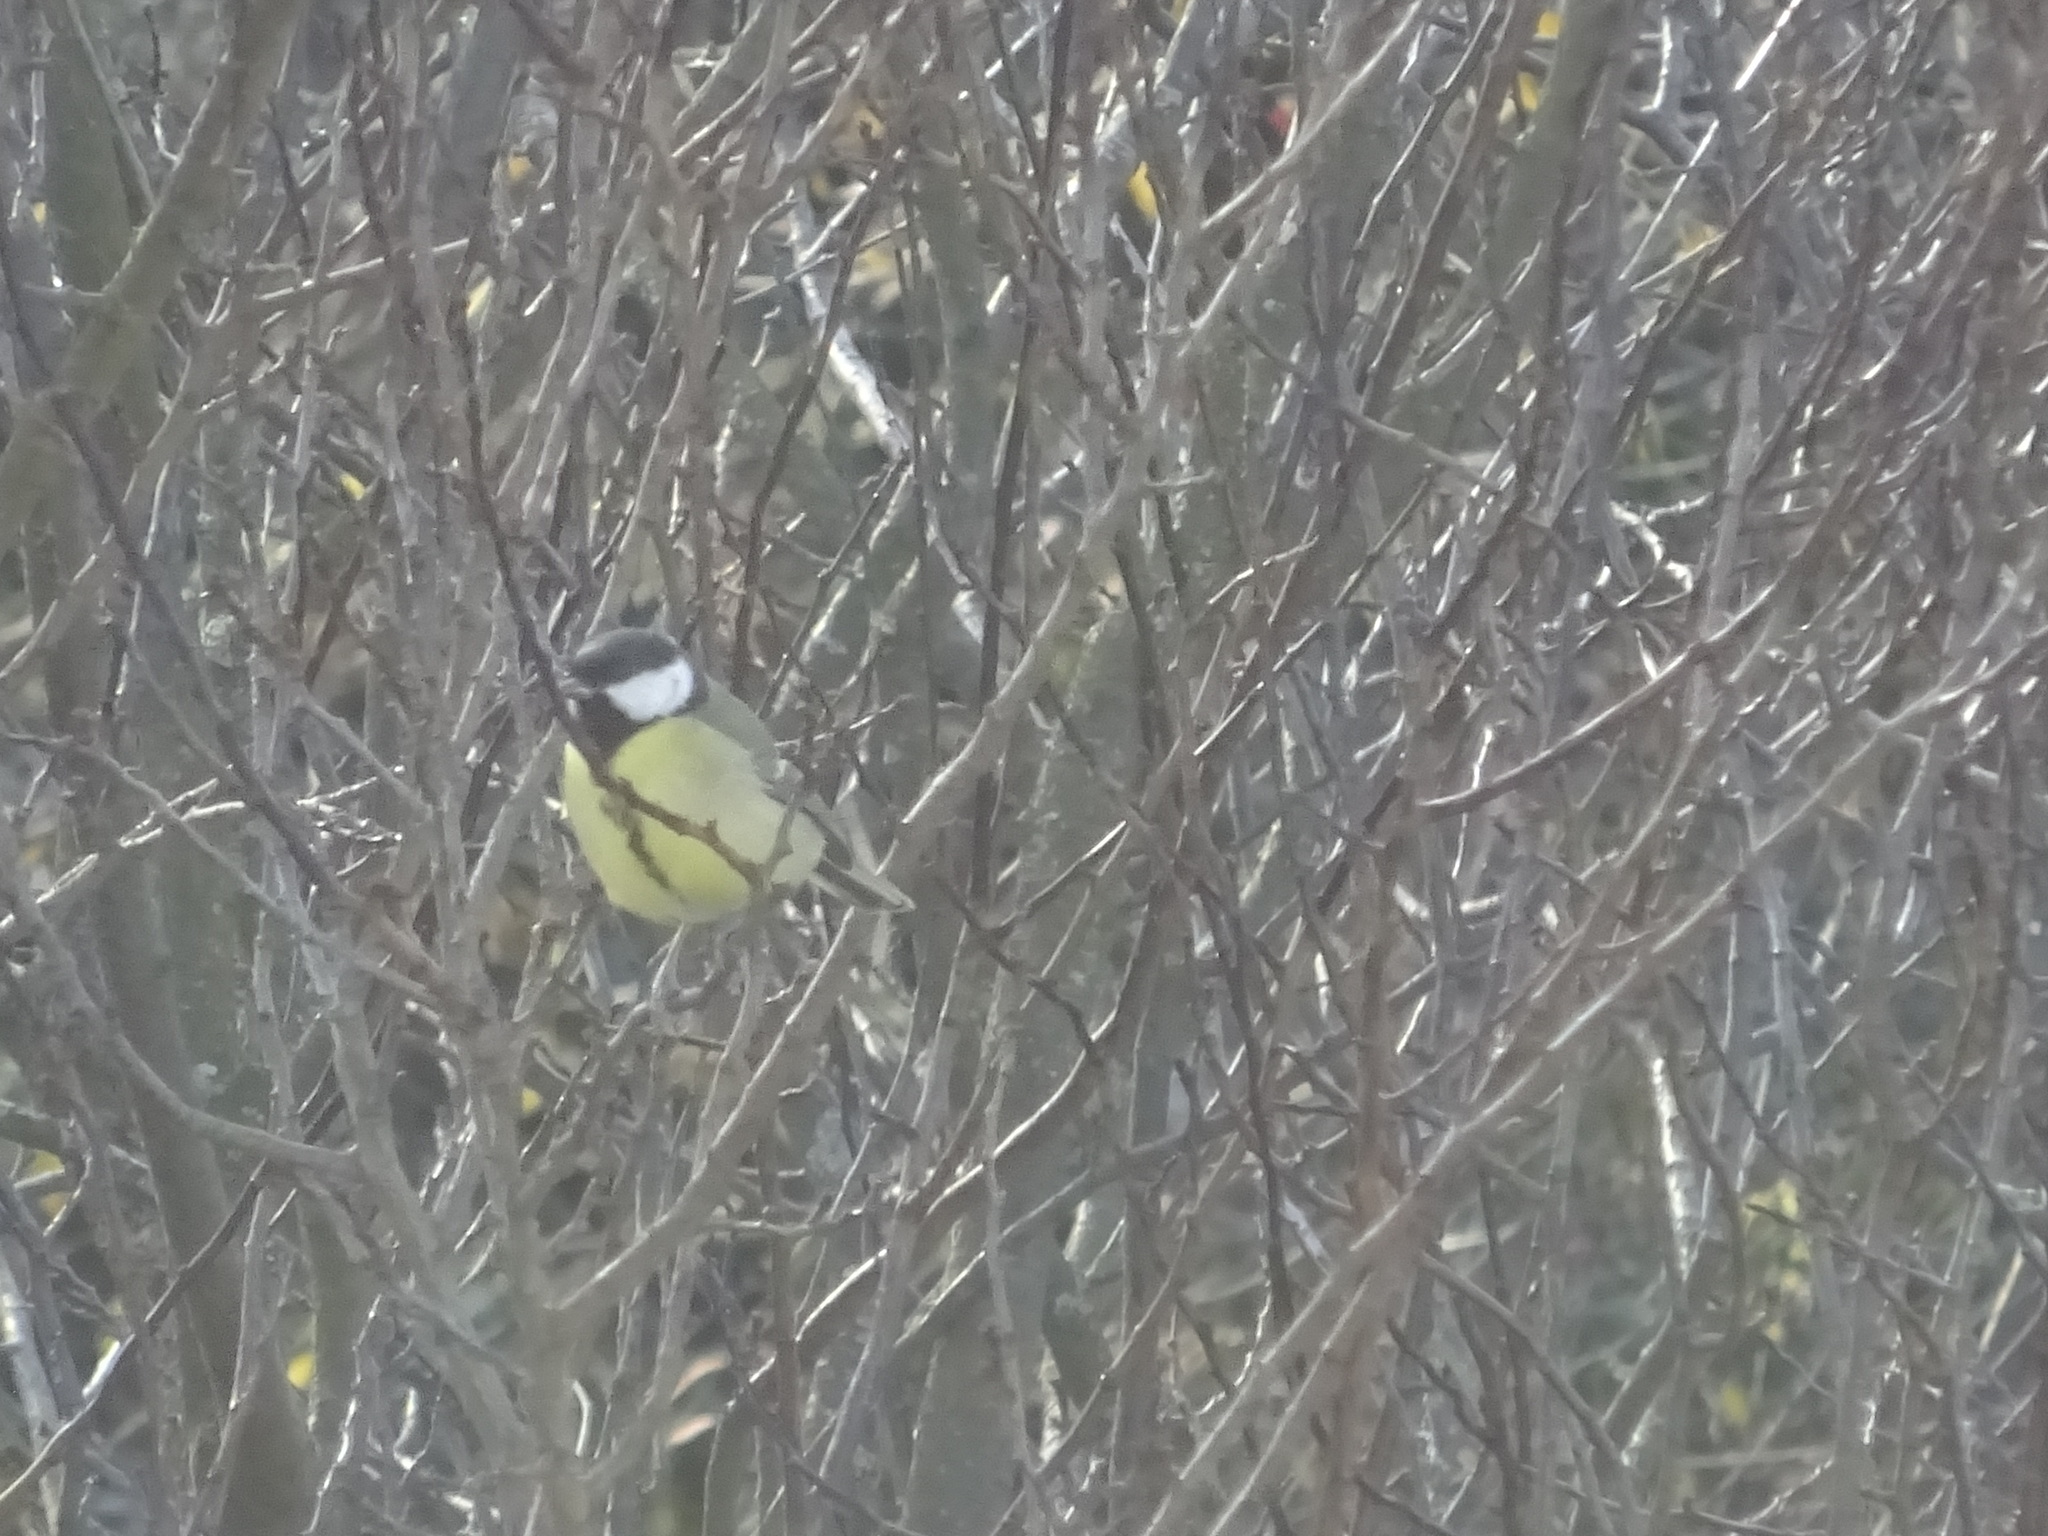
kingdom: Animalia
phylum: Chordata
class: Aves
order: Passeriformes
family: Paridae
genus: Parus
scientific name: Parus major
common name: Great tit
